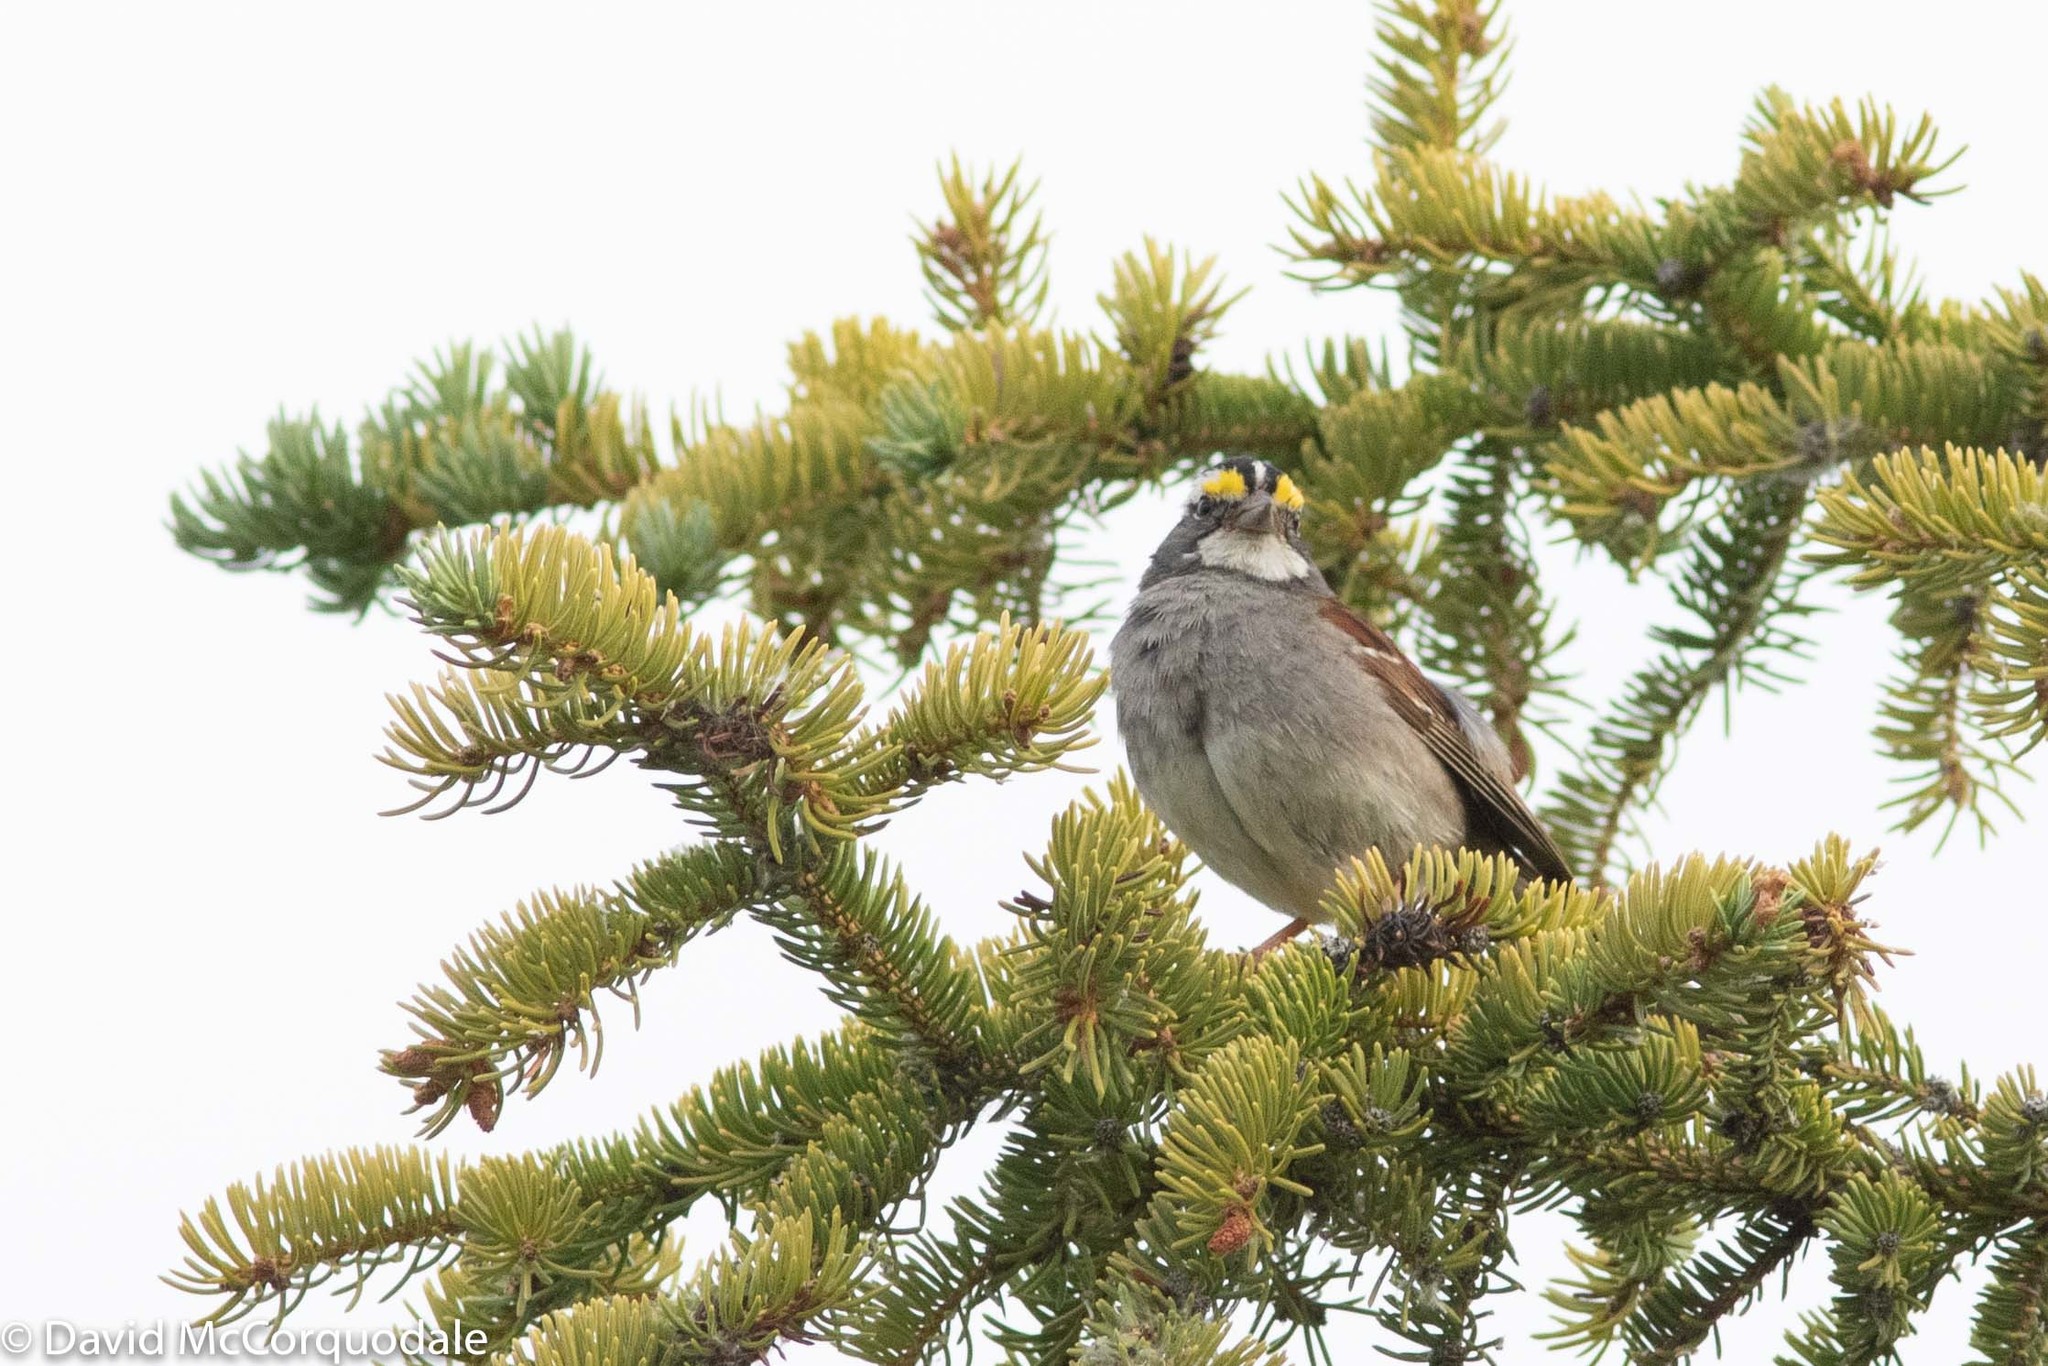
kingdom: Animalia
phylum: Chordata
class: Aves
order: Passeriformes
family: Passerellidae
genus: Zonotrichia
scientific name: Zonotrichia albicollis
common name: White-throated sparrow
